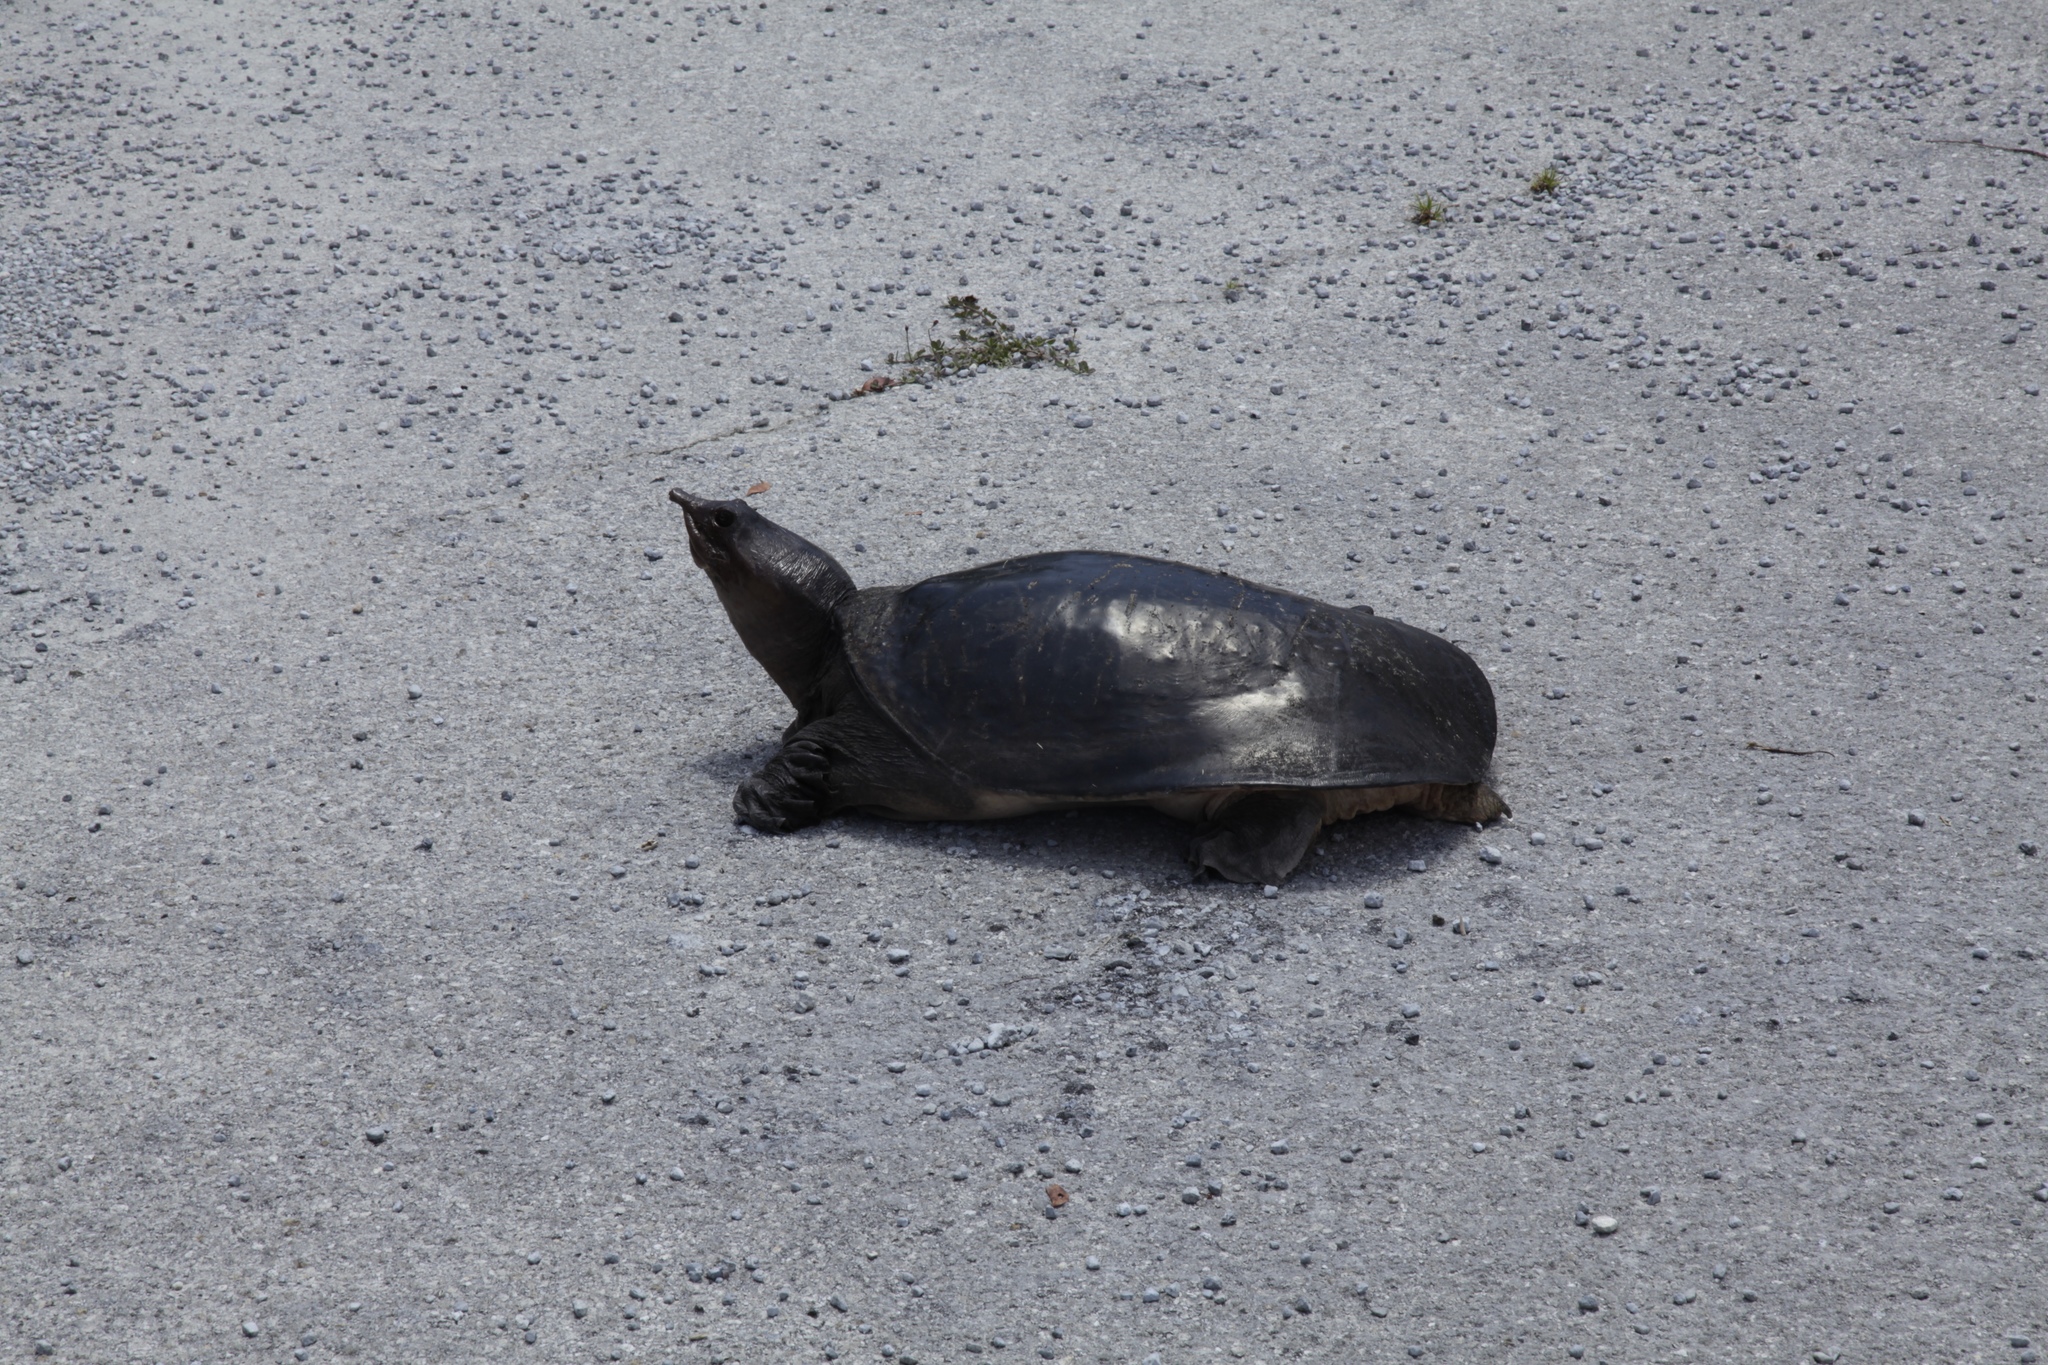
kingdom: Animalia
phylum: Chordata
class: Testudines
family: Trionychidae
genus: Apalone
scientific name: Apalone ferox
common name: Florida softshell turtle
